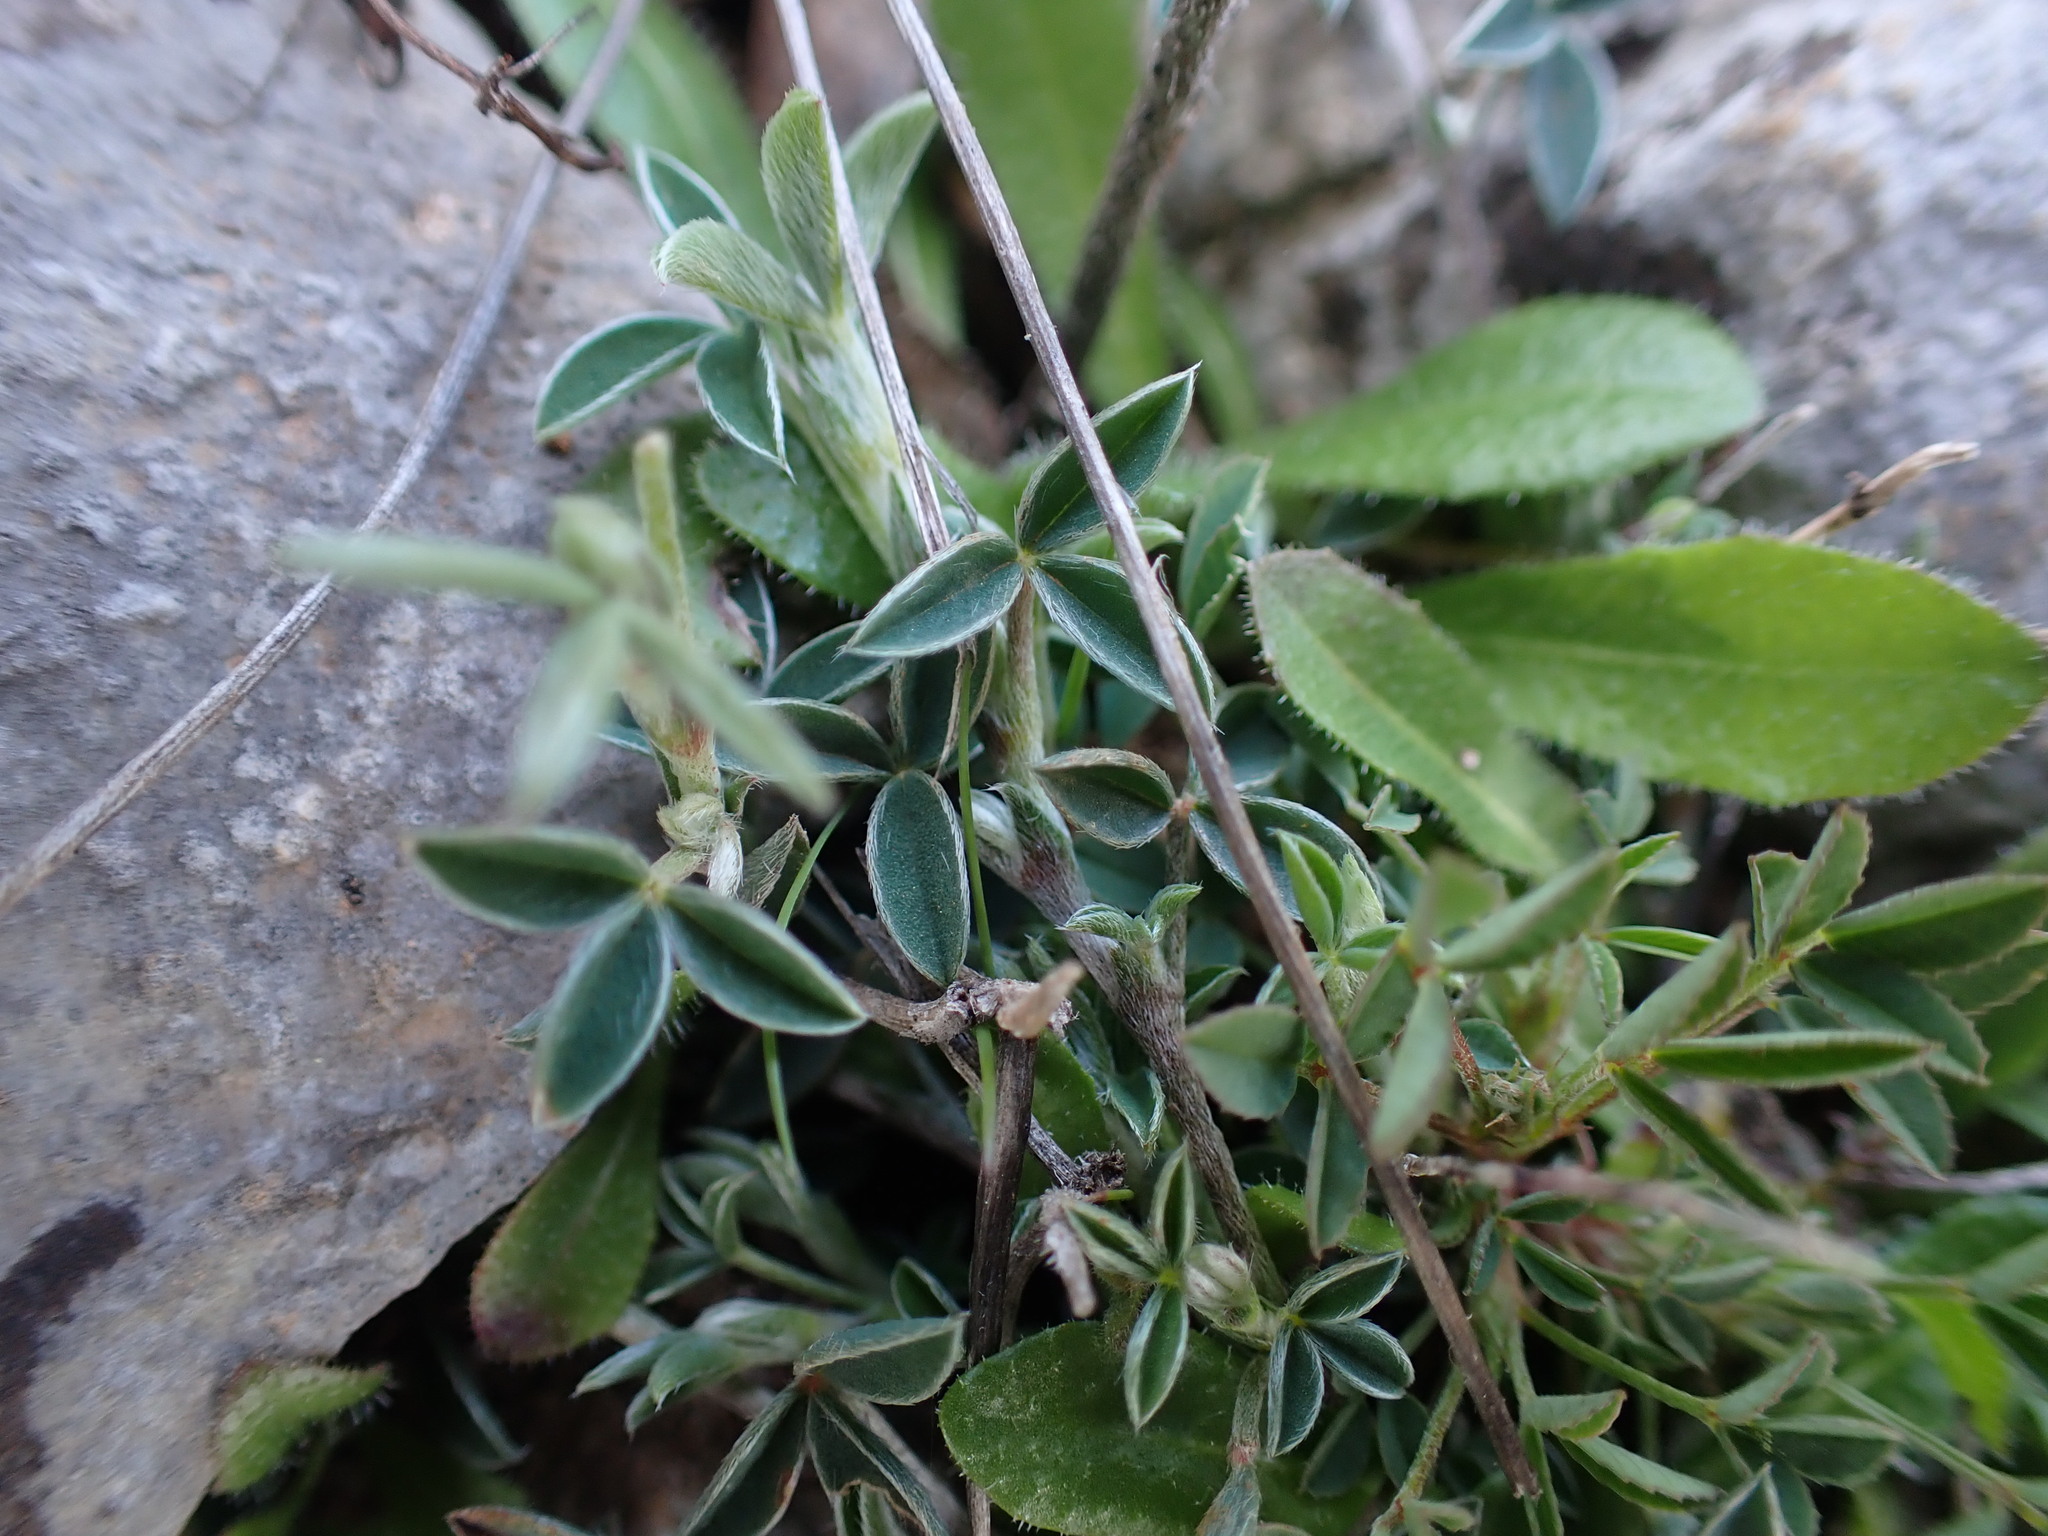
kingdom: Plantae
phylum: Tracheophyta
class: Magnoliopsida
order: Fabales
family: Fabaceae
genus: Argyrolobium
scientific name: Argyrolobium zanonii
